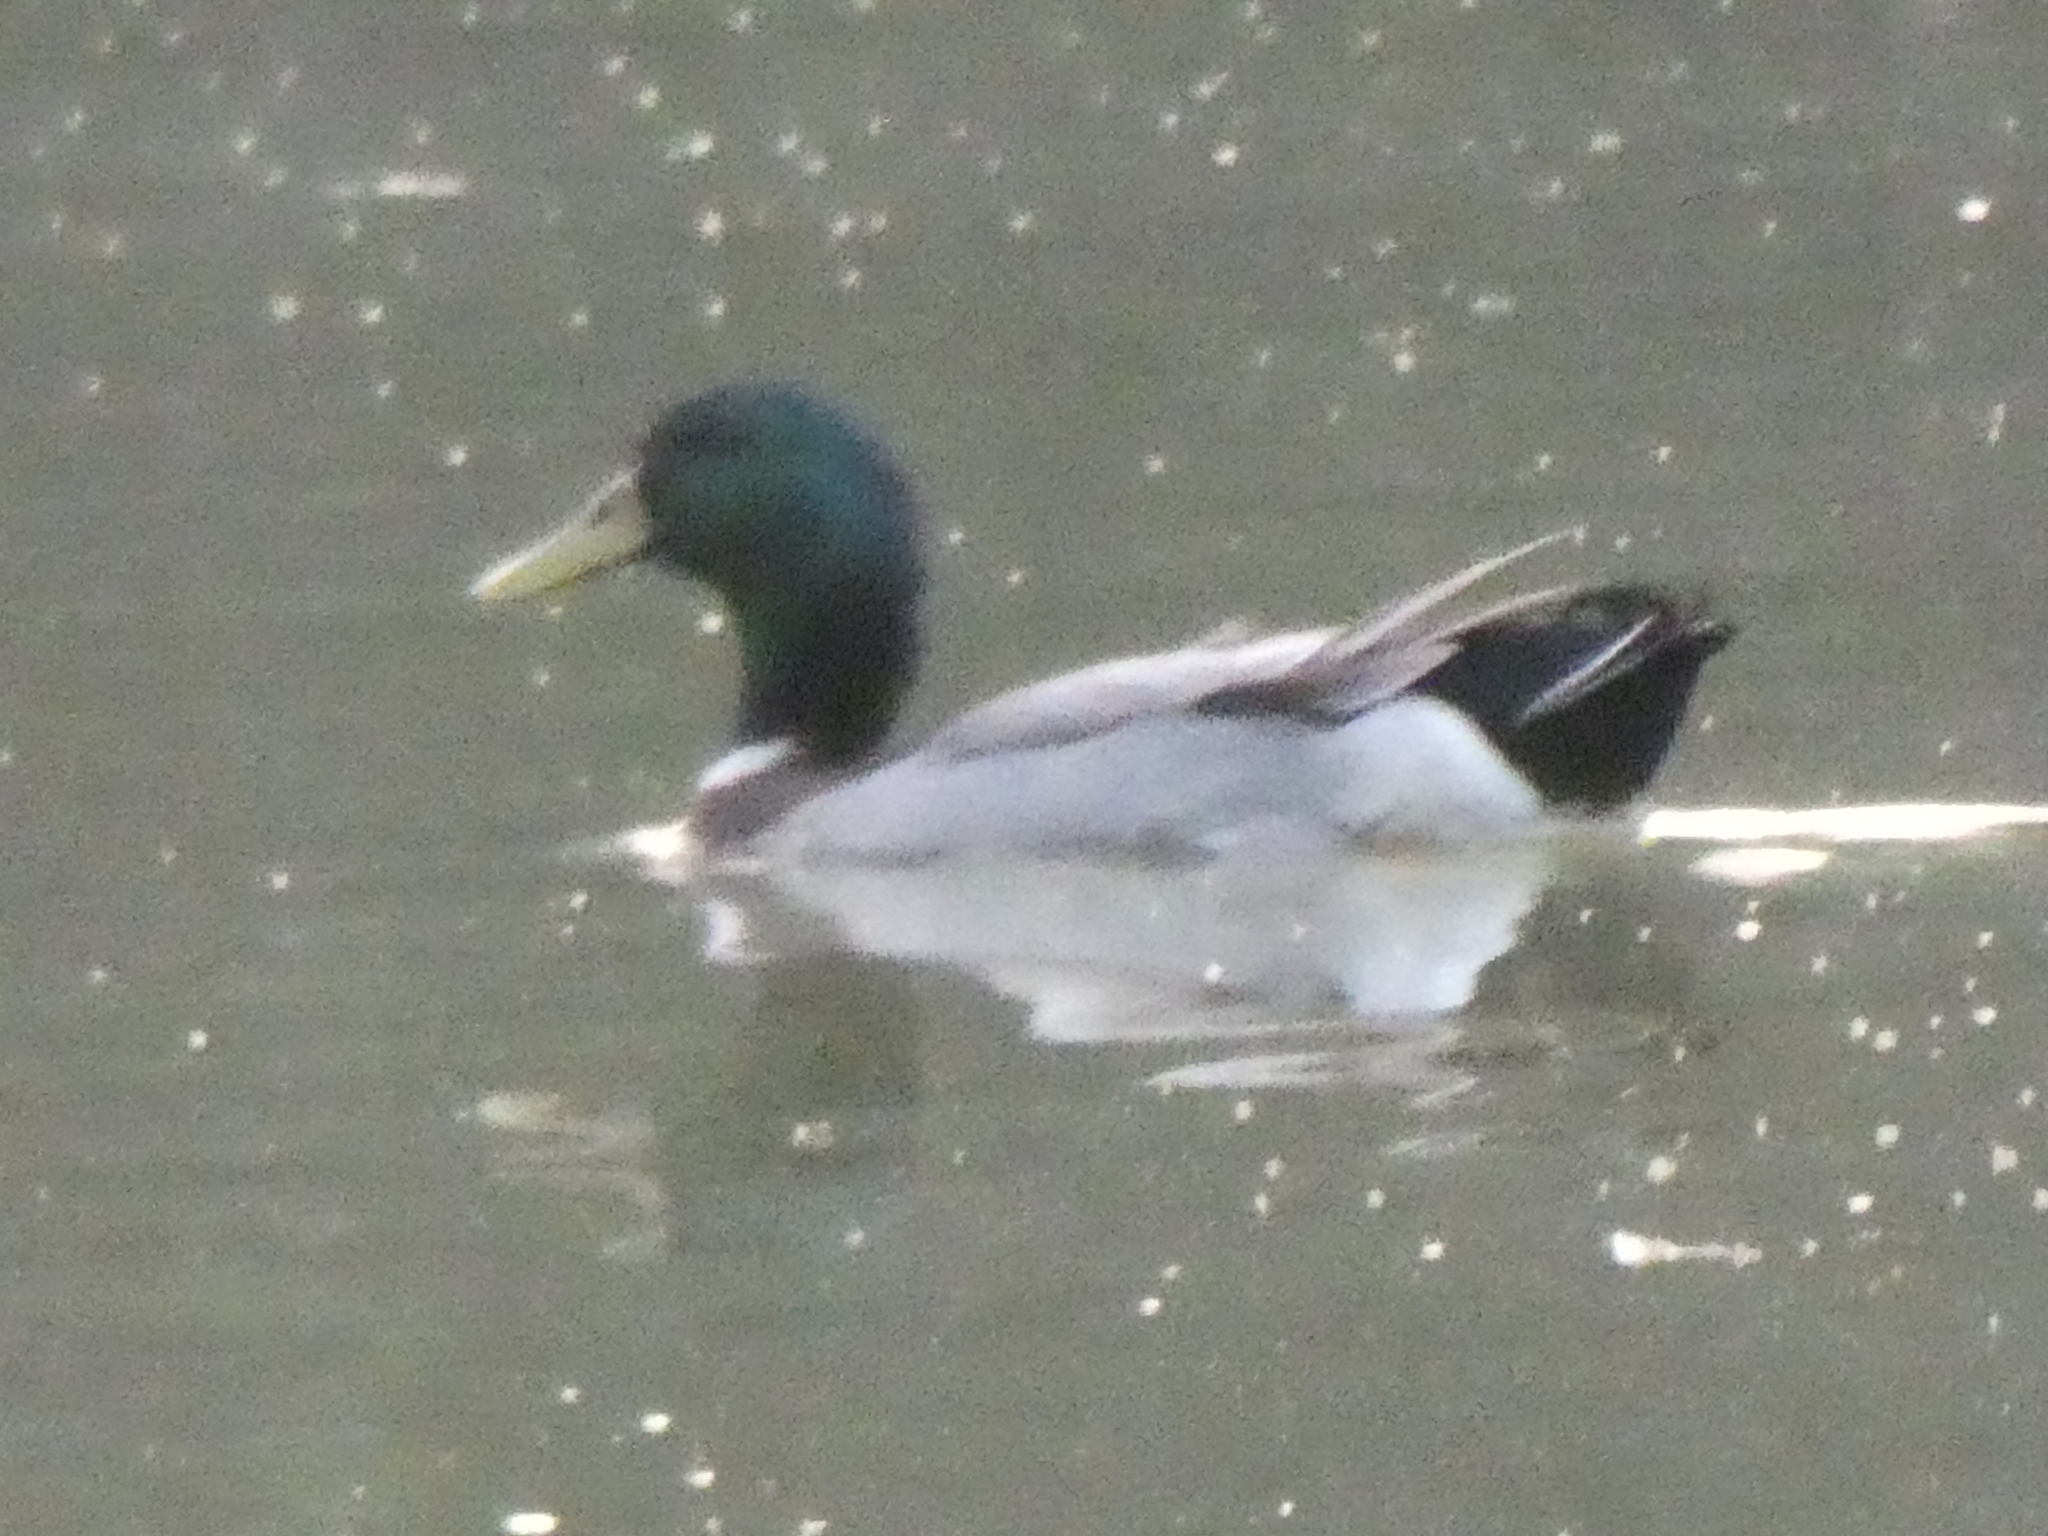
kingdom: Animalia
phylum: Chordata
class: Aves
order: Anseriformes
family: Anatidae
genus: Anas
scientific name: Anas platyrhynchos
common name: Mallard
